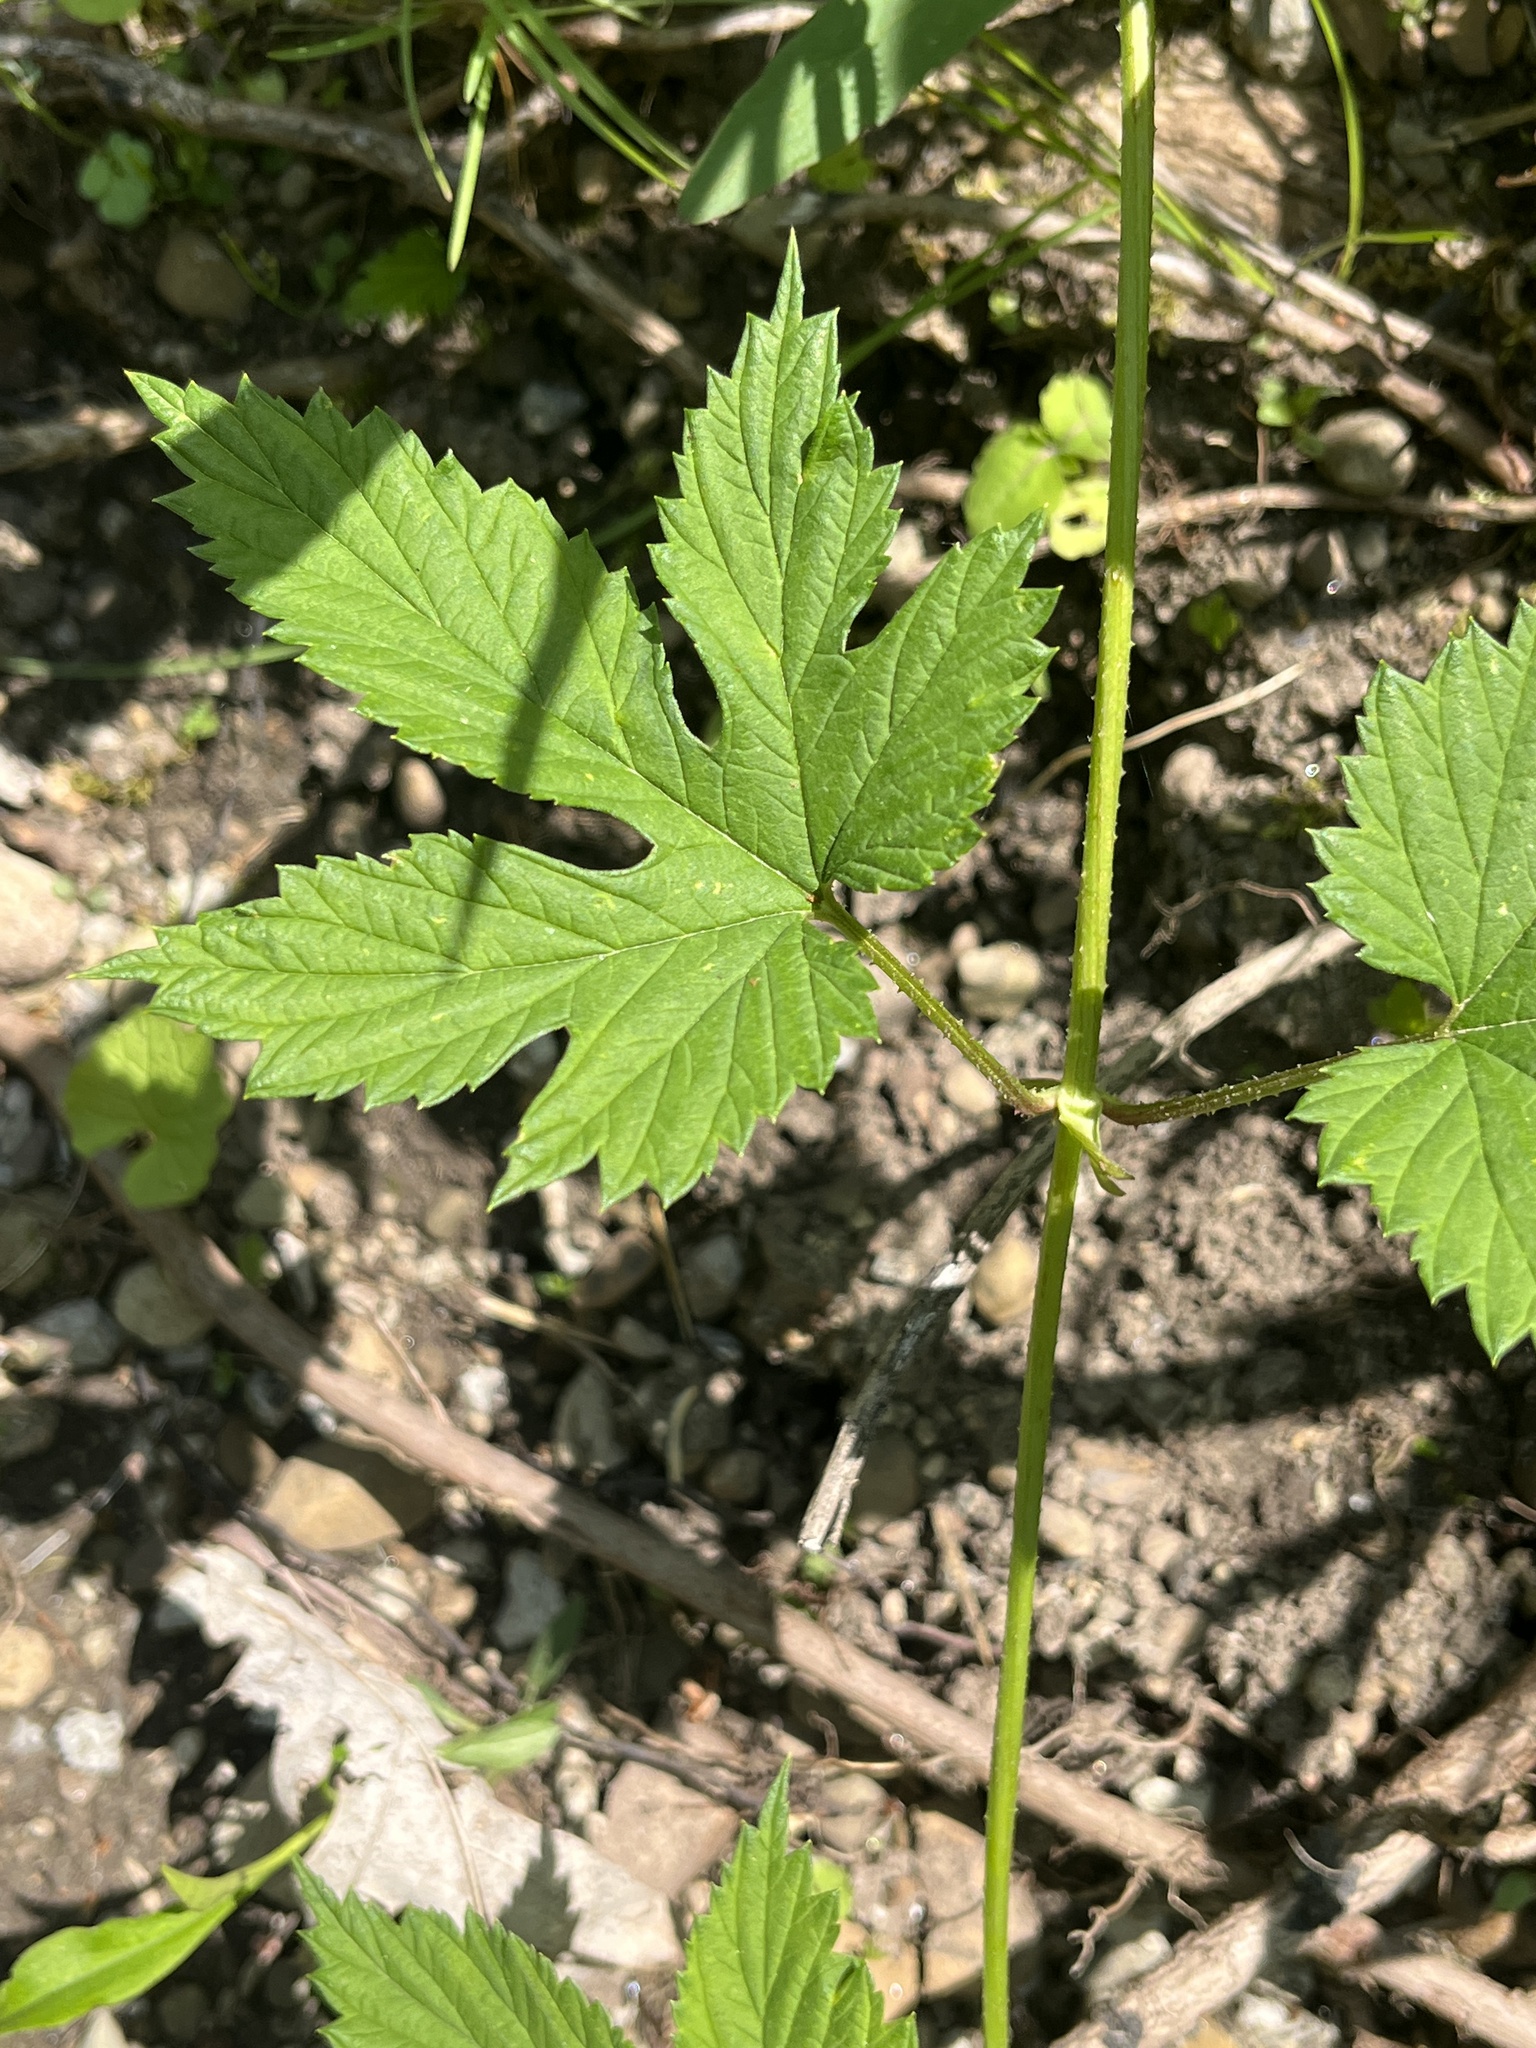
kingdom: Plantae
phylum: Tracheophyta
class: Magnoliopsida
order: Rosales
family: Cannabaceae
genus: Humulus
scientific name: Humulus lupulus
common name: Hop
